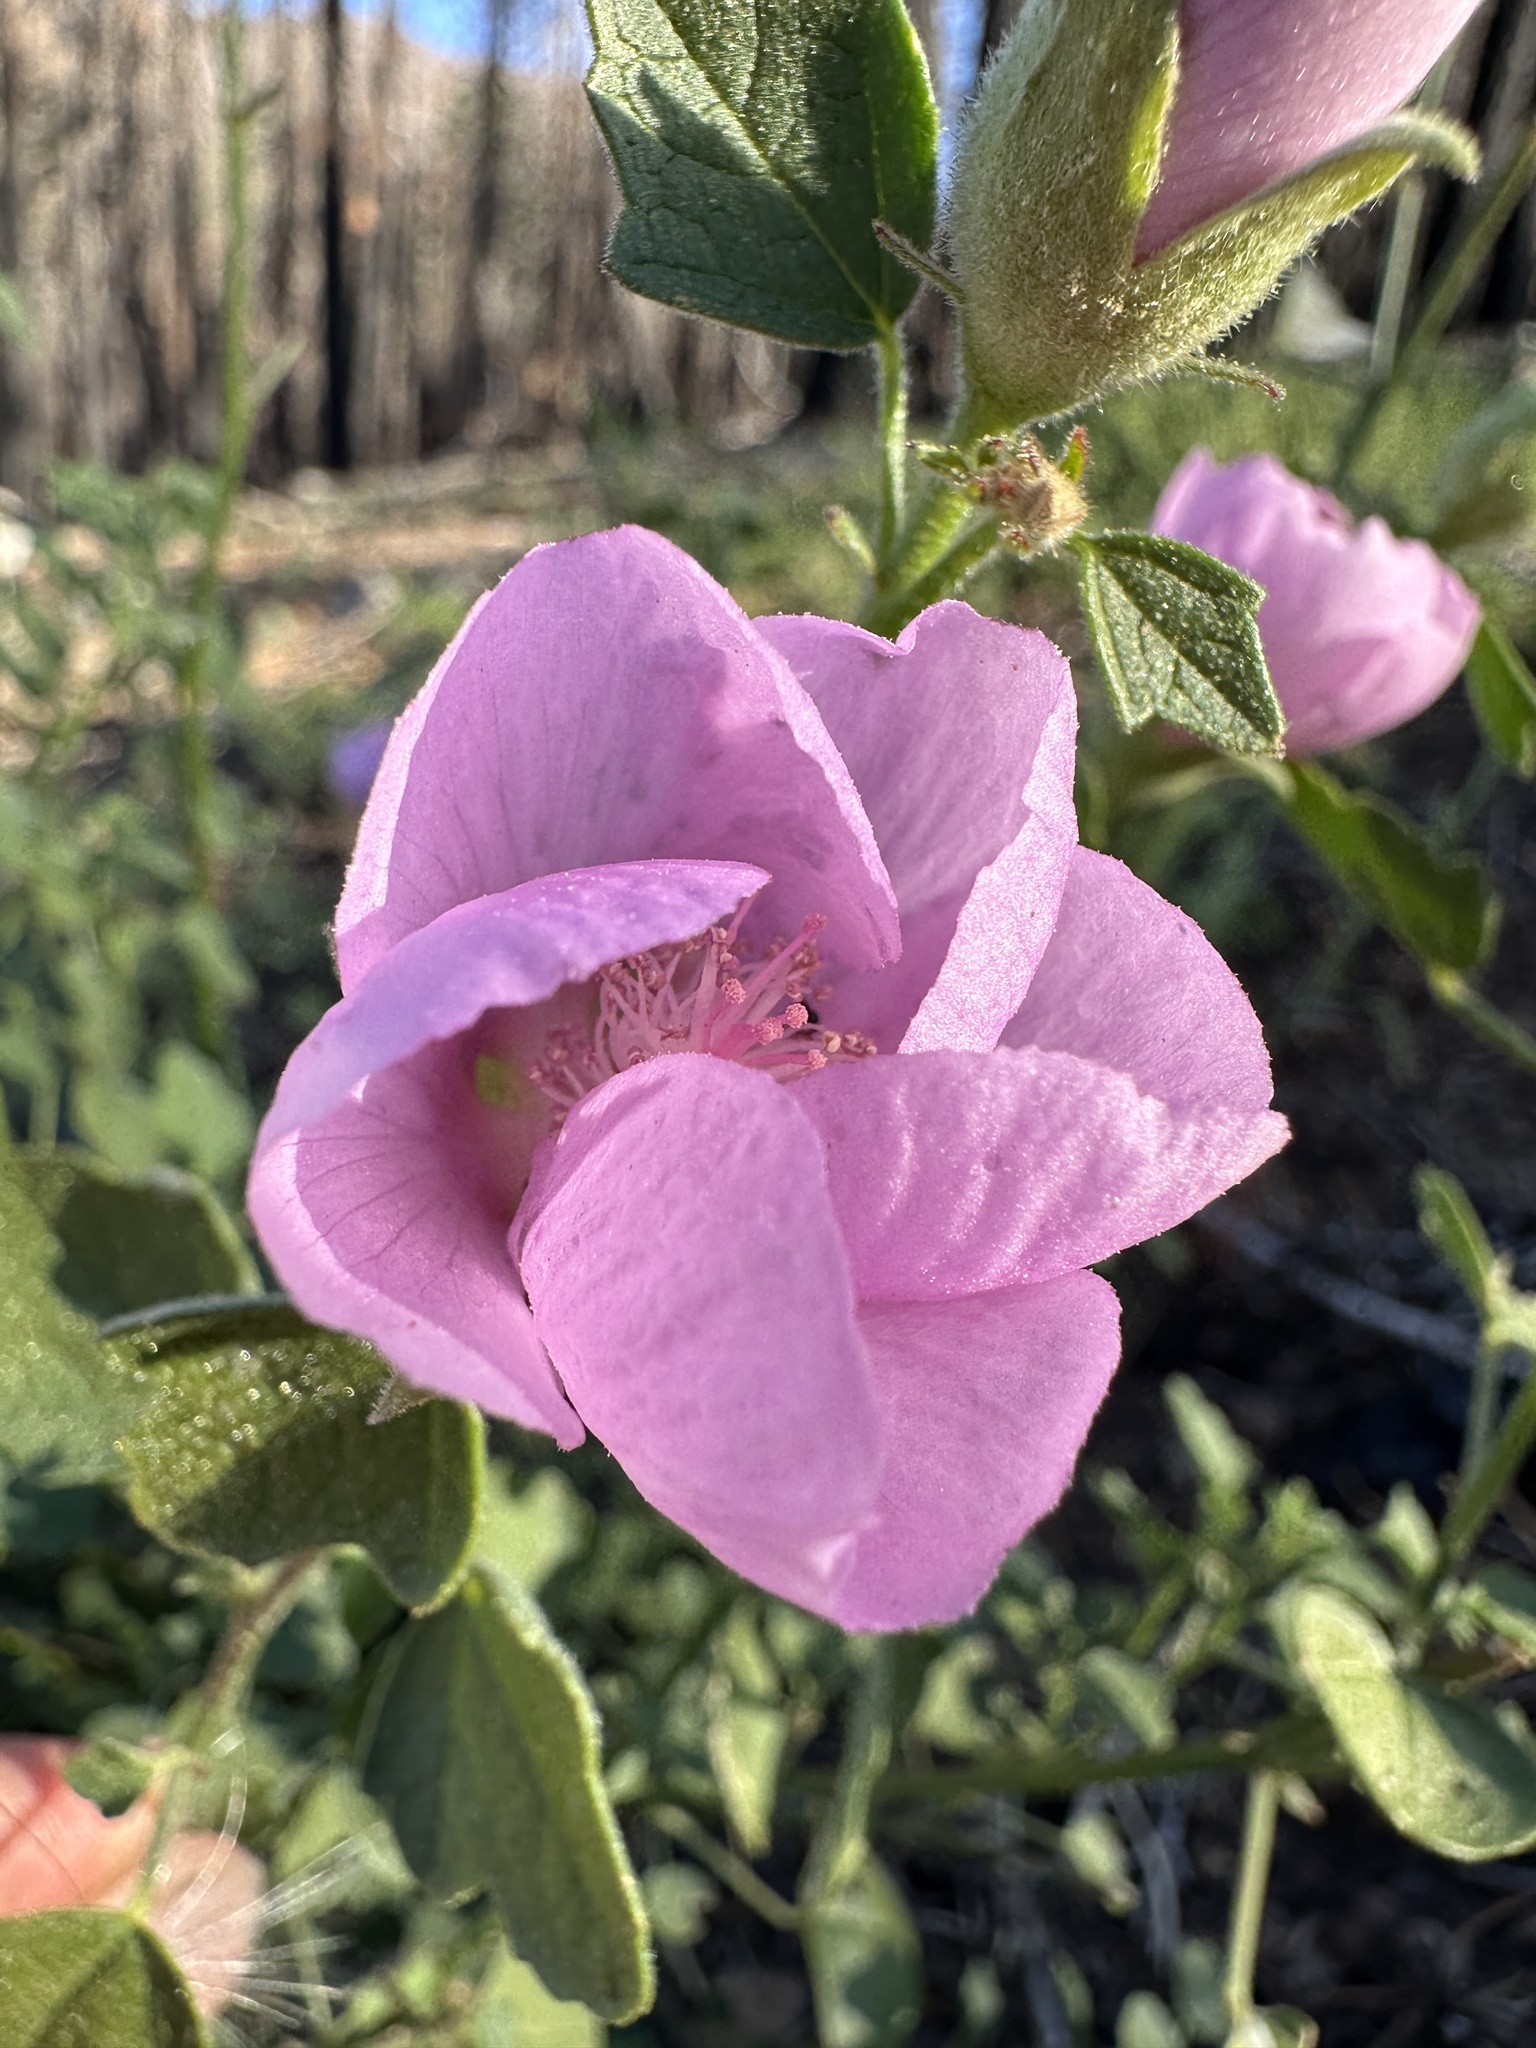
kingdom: Plantae
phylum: Tracheophyta
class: Magnoliopsida
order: Malvales
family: Malvaceae
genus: Iliamna
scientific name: Iliamna bakeri
